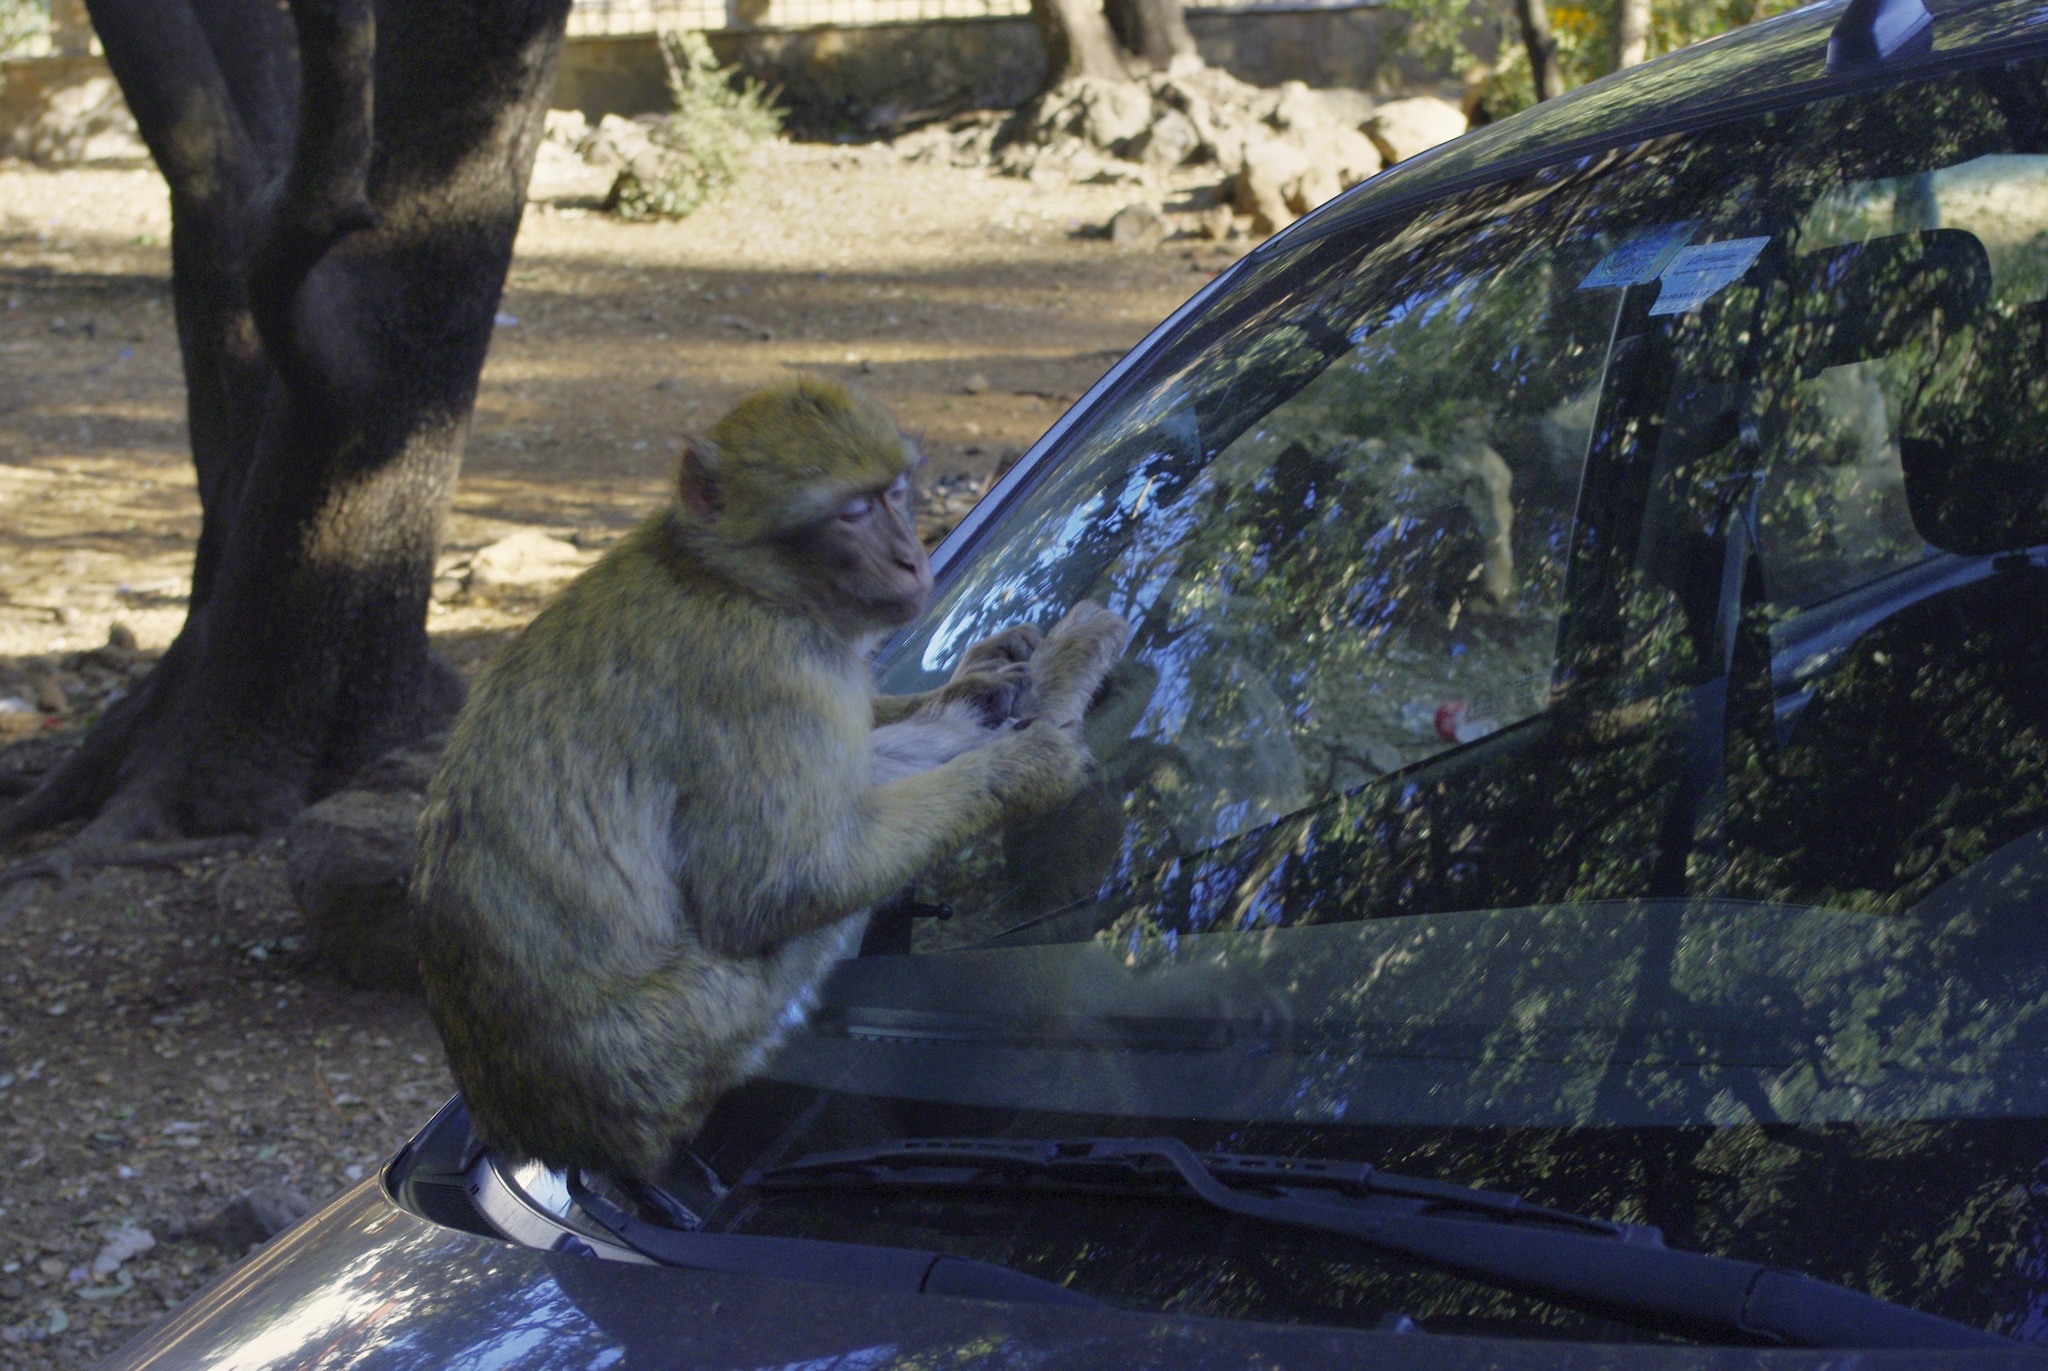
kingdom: Animalia
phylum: Chordata
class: Mammalia
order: Primates
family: Cercopithecidae
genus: Macaca
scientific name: Macaca sylvanus
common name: Barbary macaque
